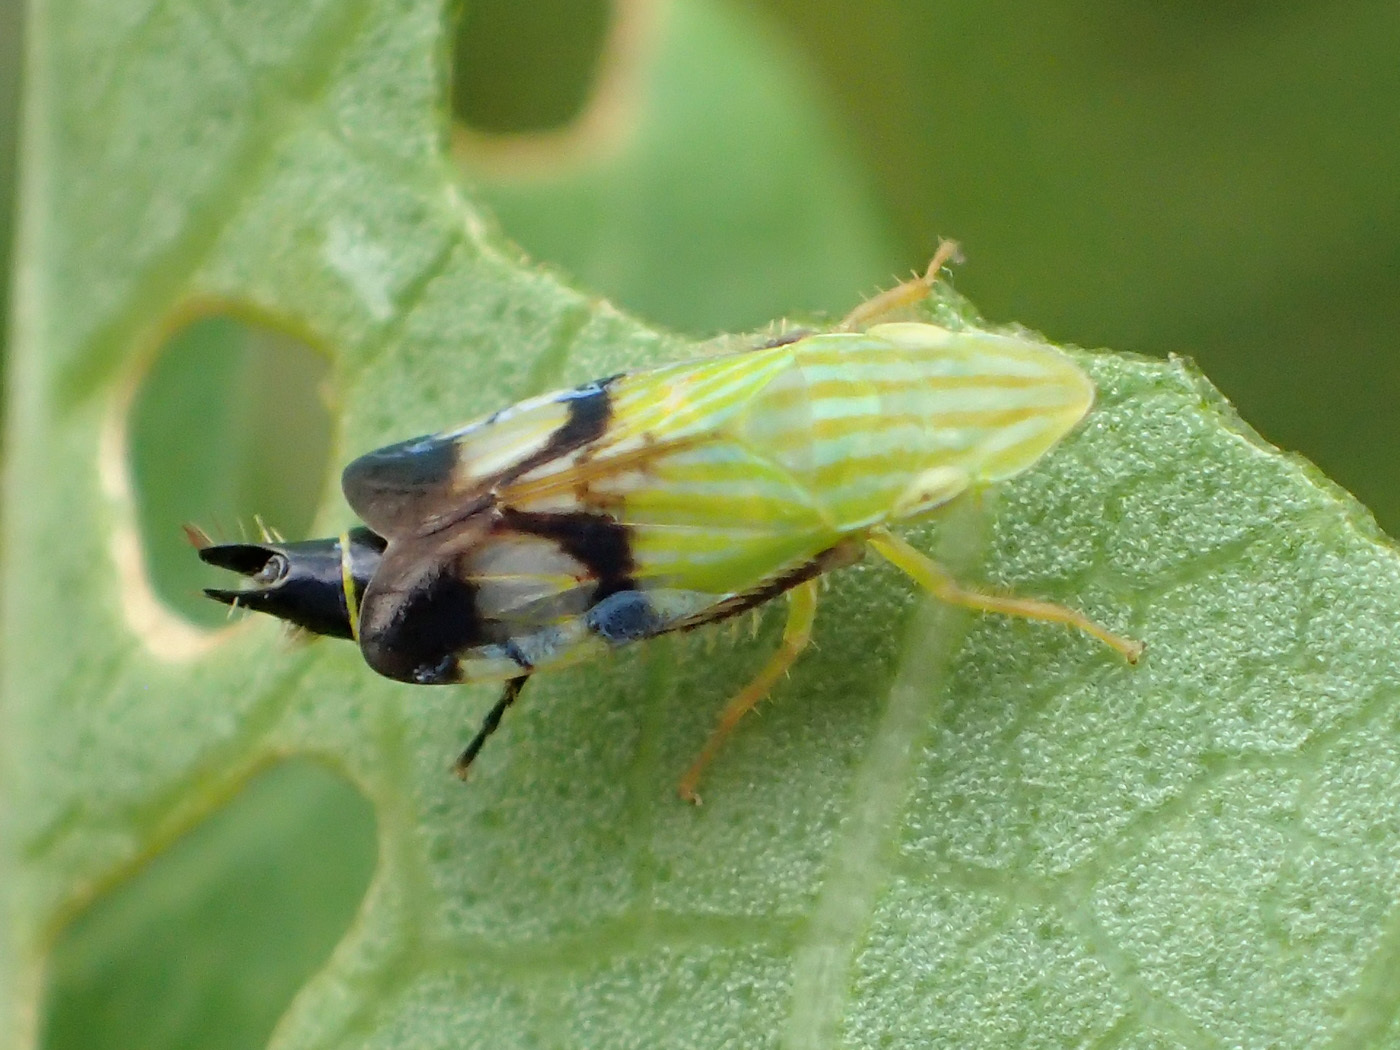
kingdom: Animalia
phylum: Arthropoda
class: Insecta
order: Hemiptera
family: Cicadellidae
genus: Neohecalus
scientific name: Neohecalus lineatus
